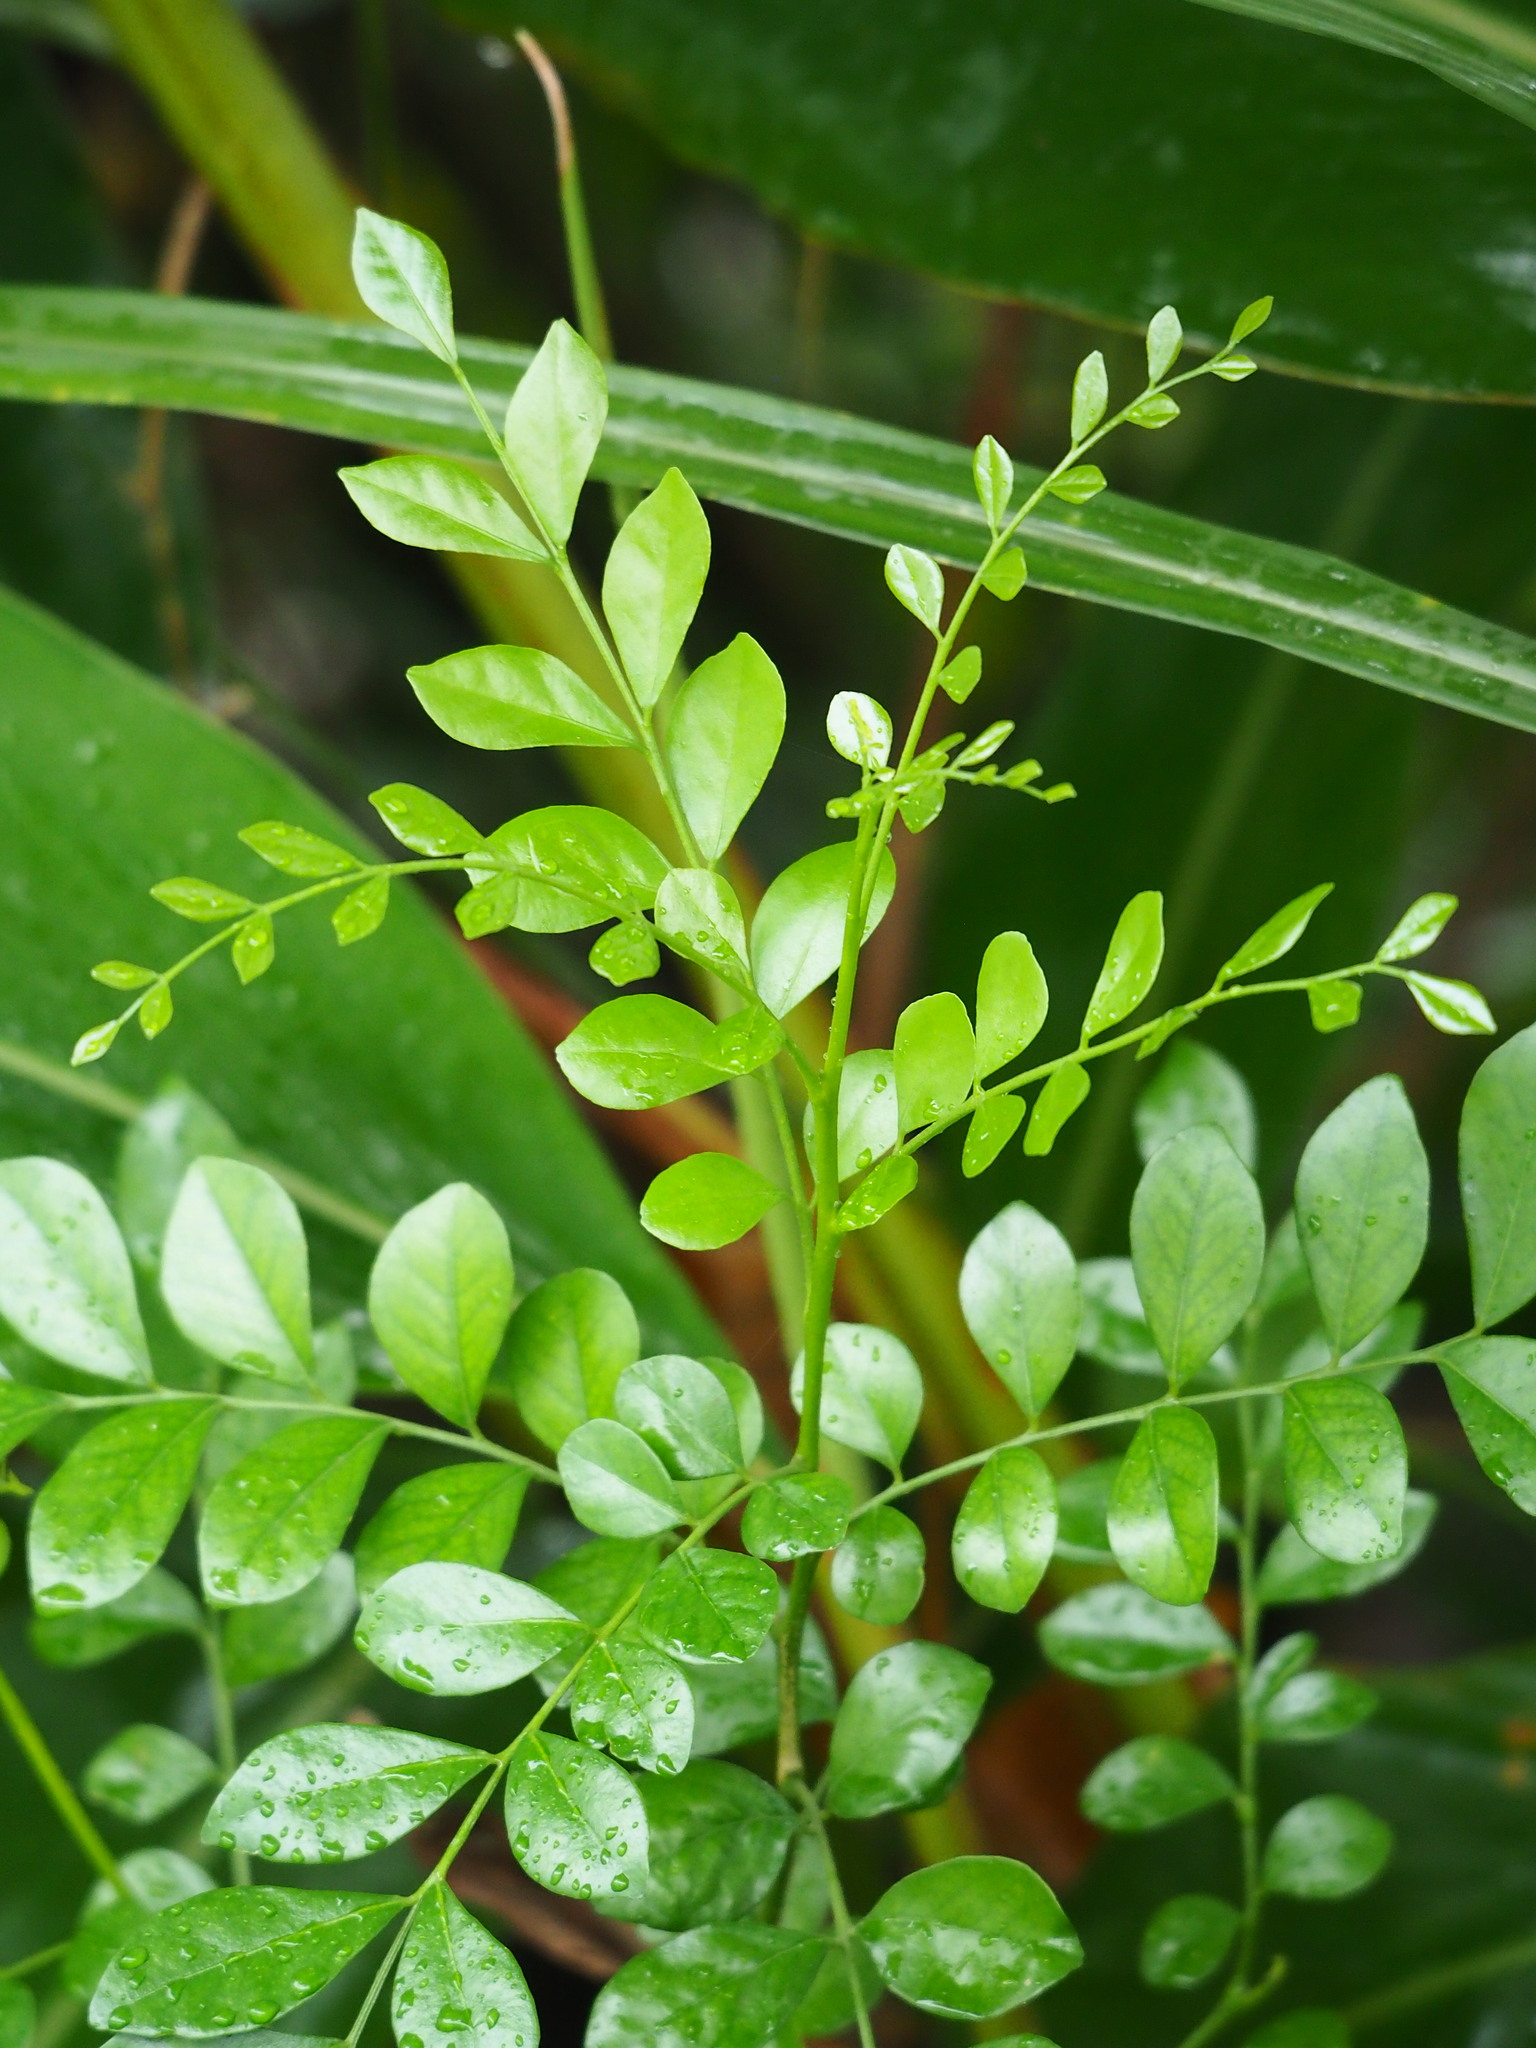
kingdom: Plantae
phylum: Tracheophyta
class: Magnoliopsida
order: Sapindales
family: Rutaceae
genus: Murraya
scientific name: Murraya paniculata
